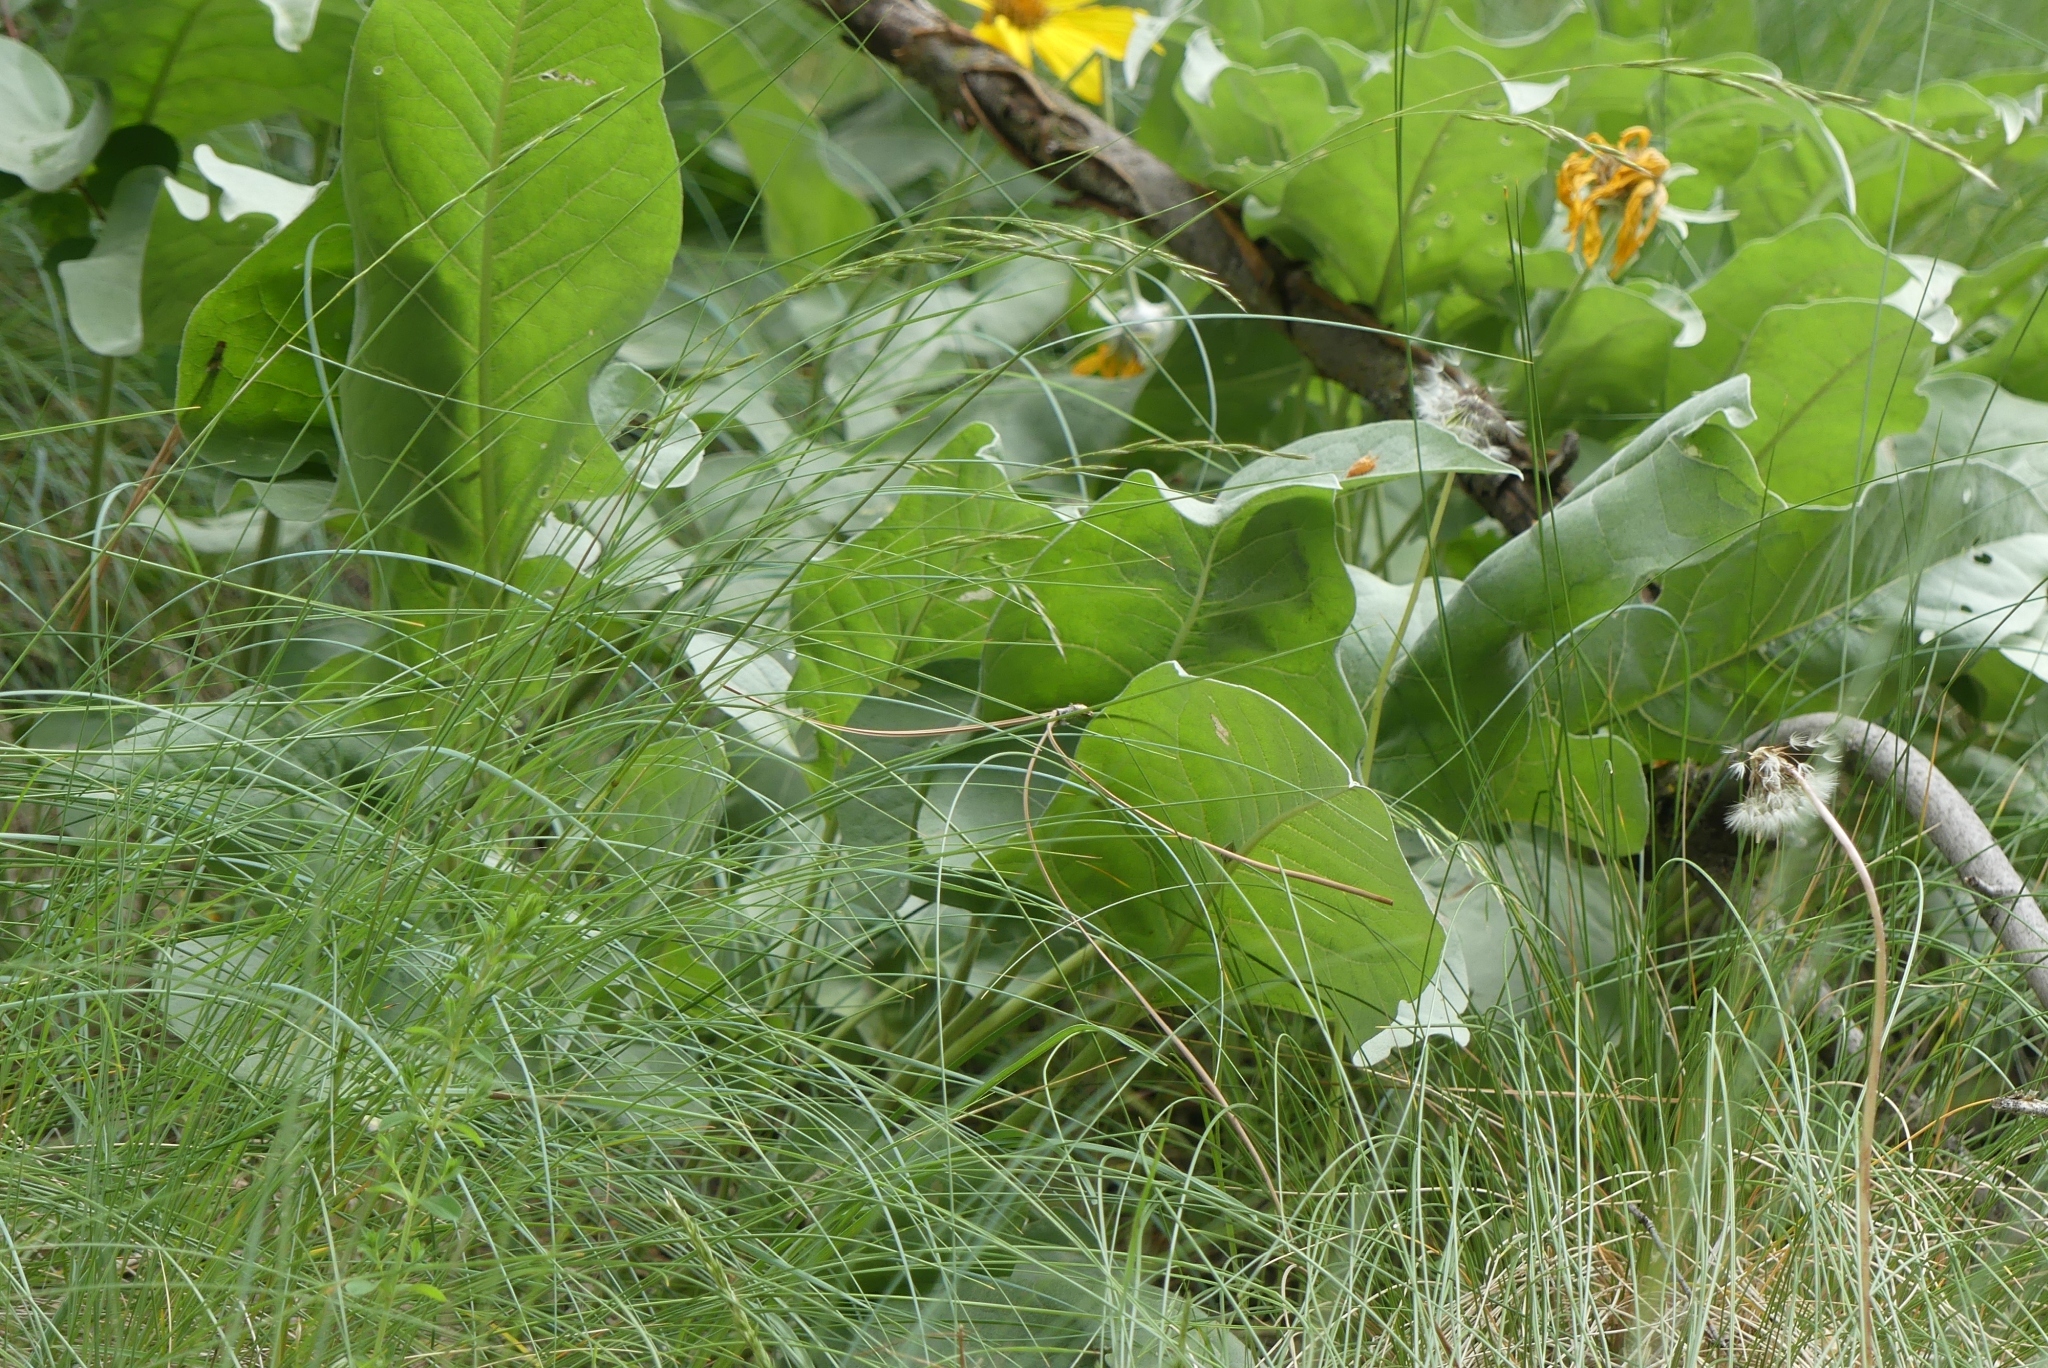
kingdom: Plantae
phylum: Tracheophyta
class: Magnoliopsida
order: Asterales
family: Asteraceae
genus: Wyethia
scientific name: Wyethia sagittata
